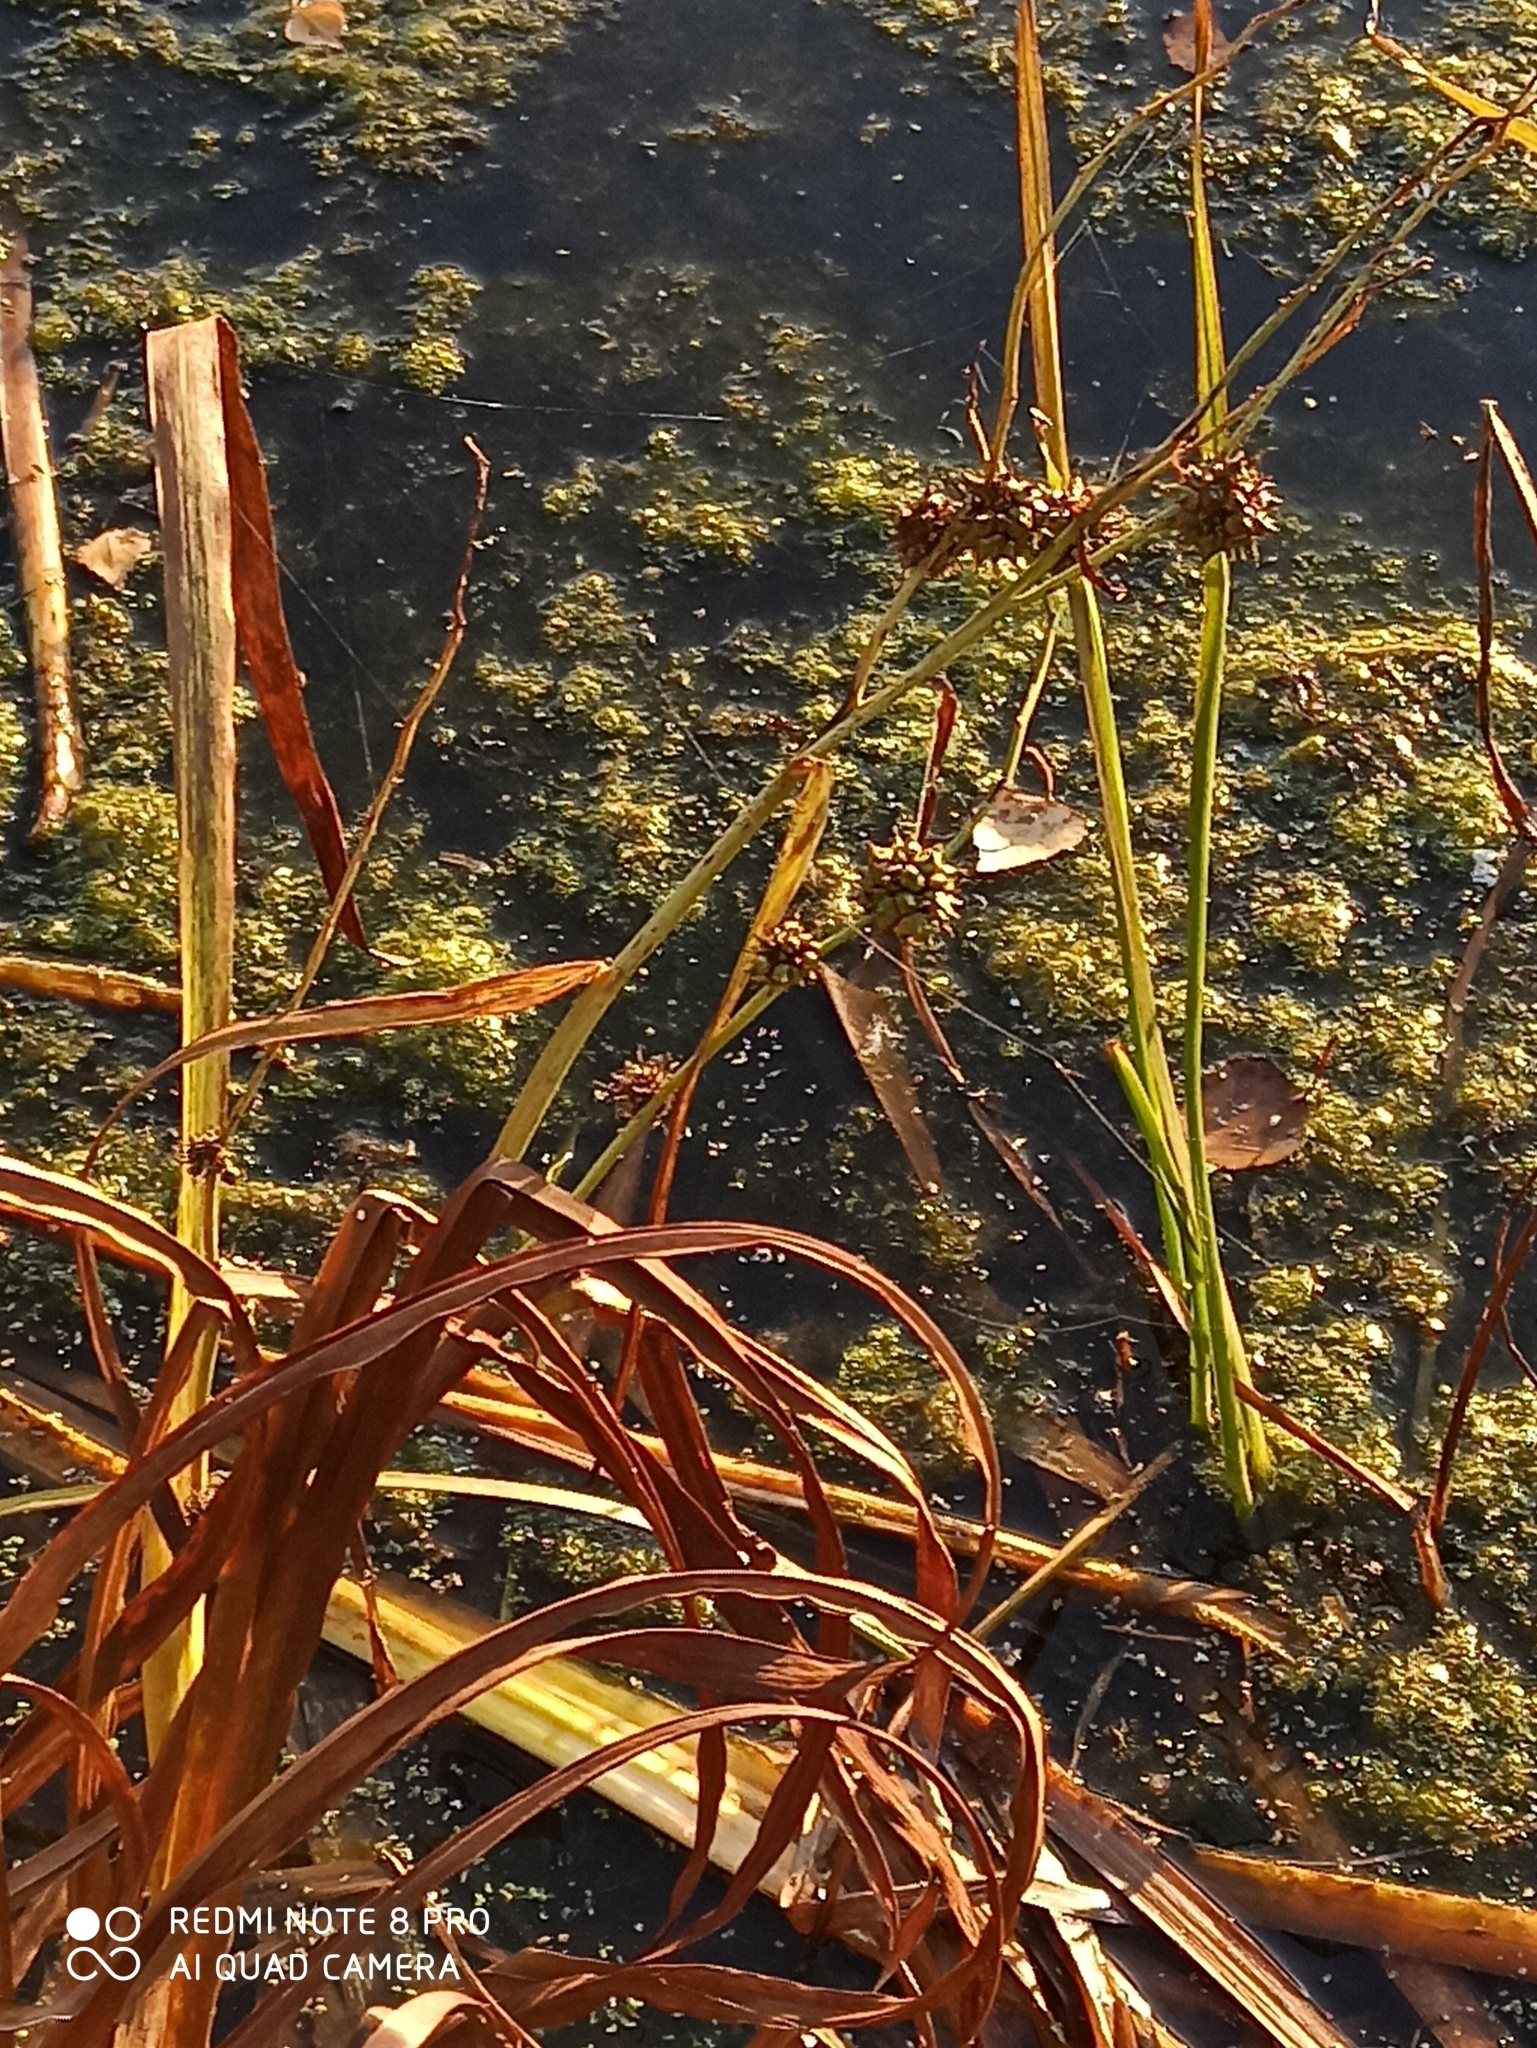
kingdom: Plantae
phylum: Tracheophyta
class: Liliopsida
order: Poales
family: Typhaceae
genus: Sparganium
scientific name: Sparganium erectum
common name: Branched bur-reed
